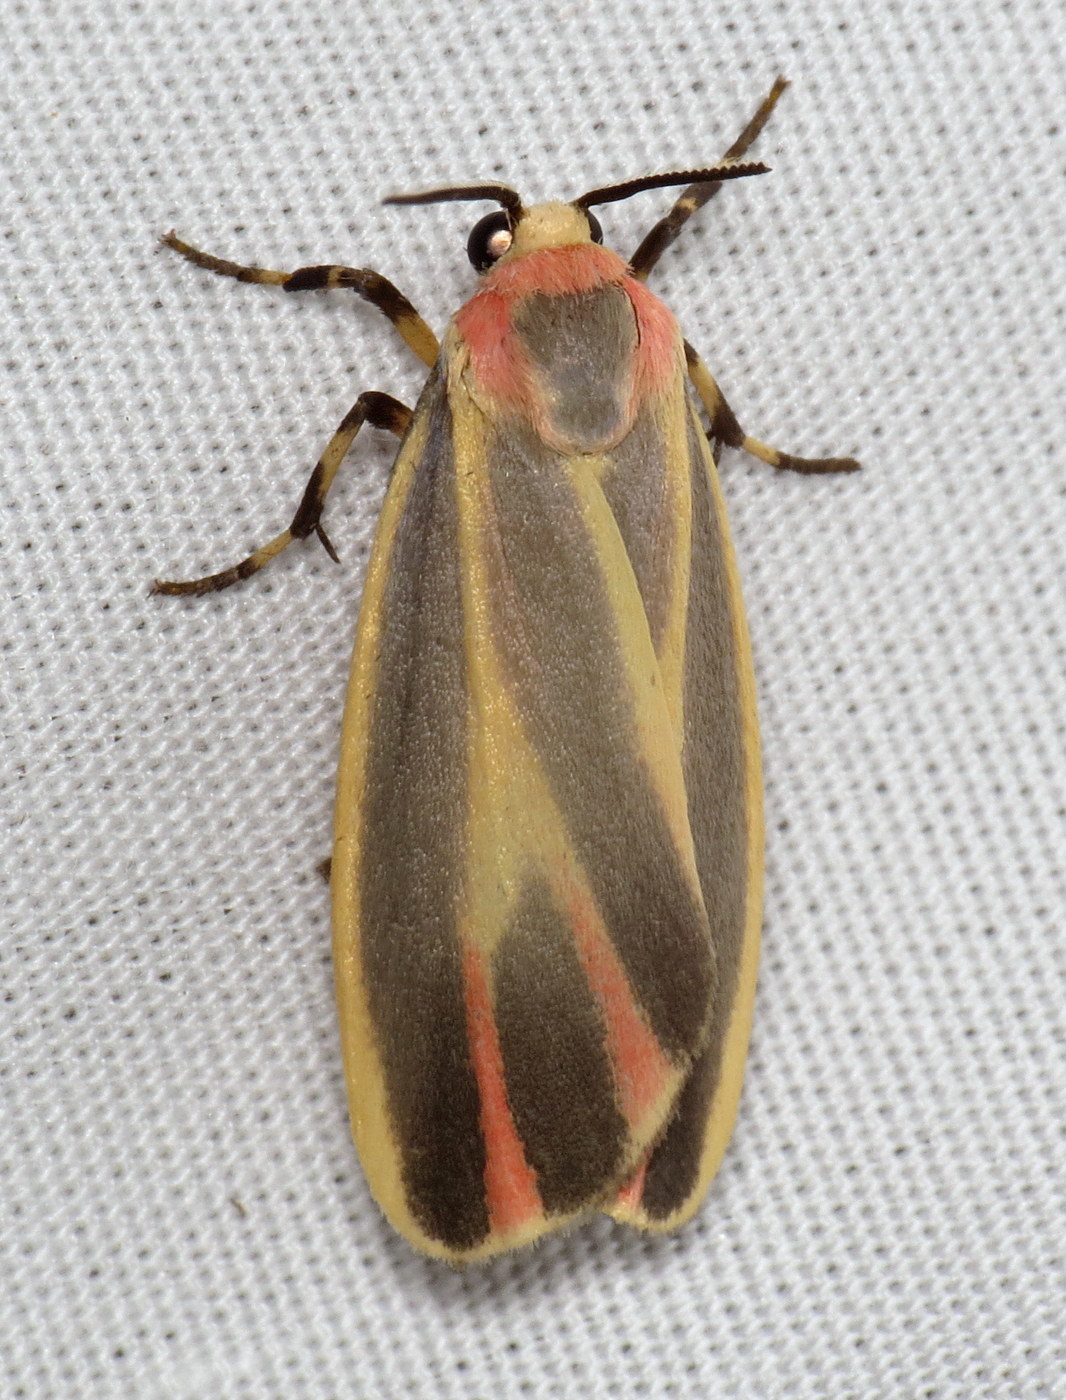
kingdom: Animalia
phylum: Arthropoda
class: Insecta
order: Lepidoptera
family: Erebidae
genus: Hypoprepia
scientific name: Hypoprepia fucosa
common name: Painted lichen moth
